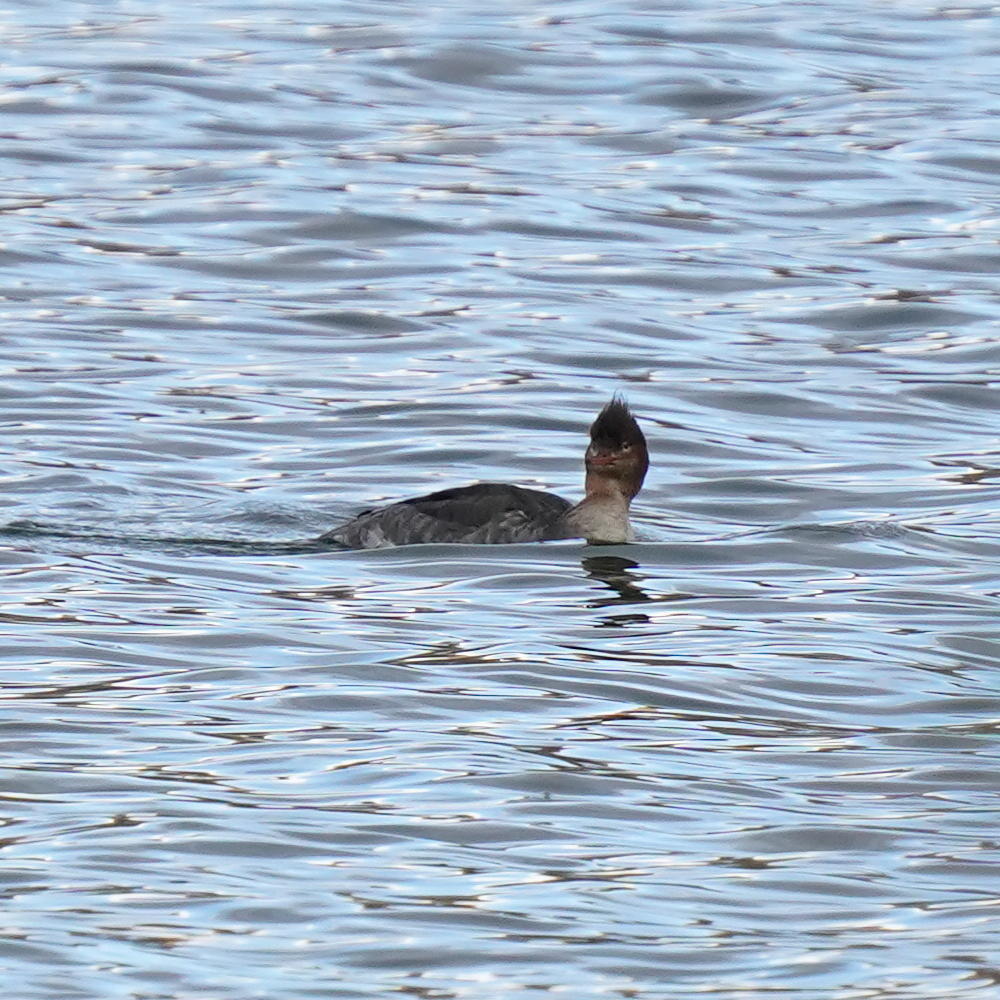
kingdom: Animalia
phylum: Chordata
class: Aves
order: Anseriformes
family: Anatidae
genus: Mergus
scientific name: Mergus serrator
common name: Red-breasted merganser
